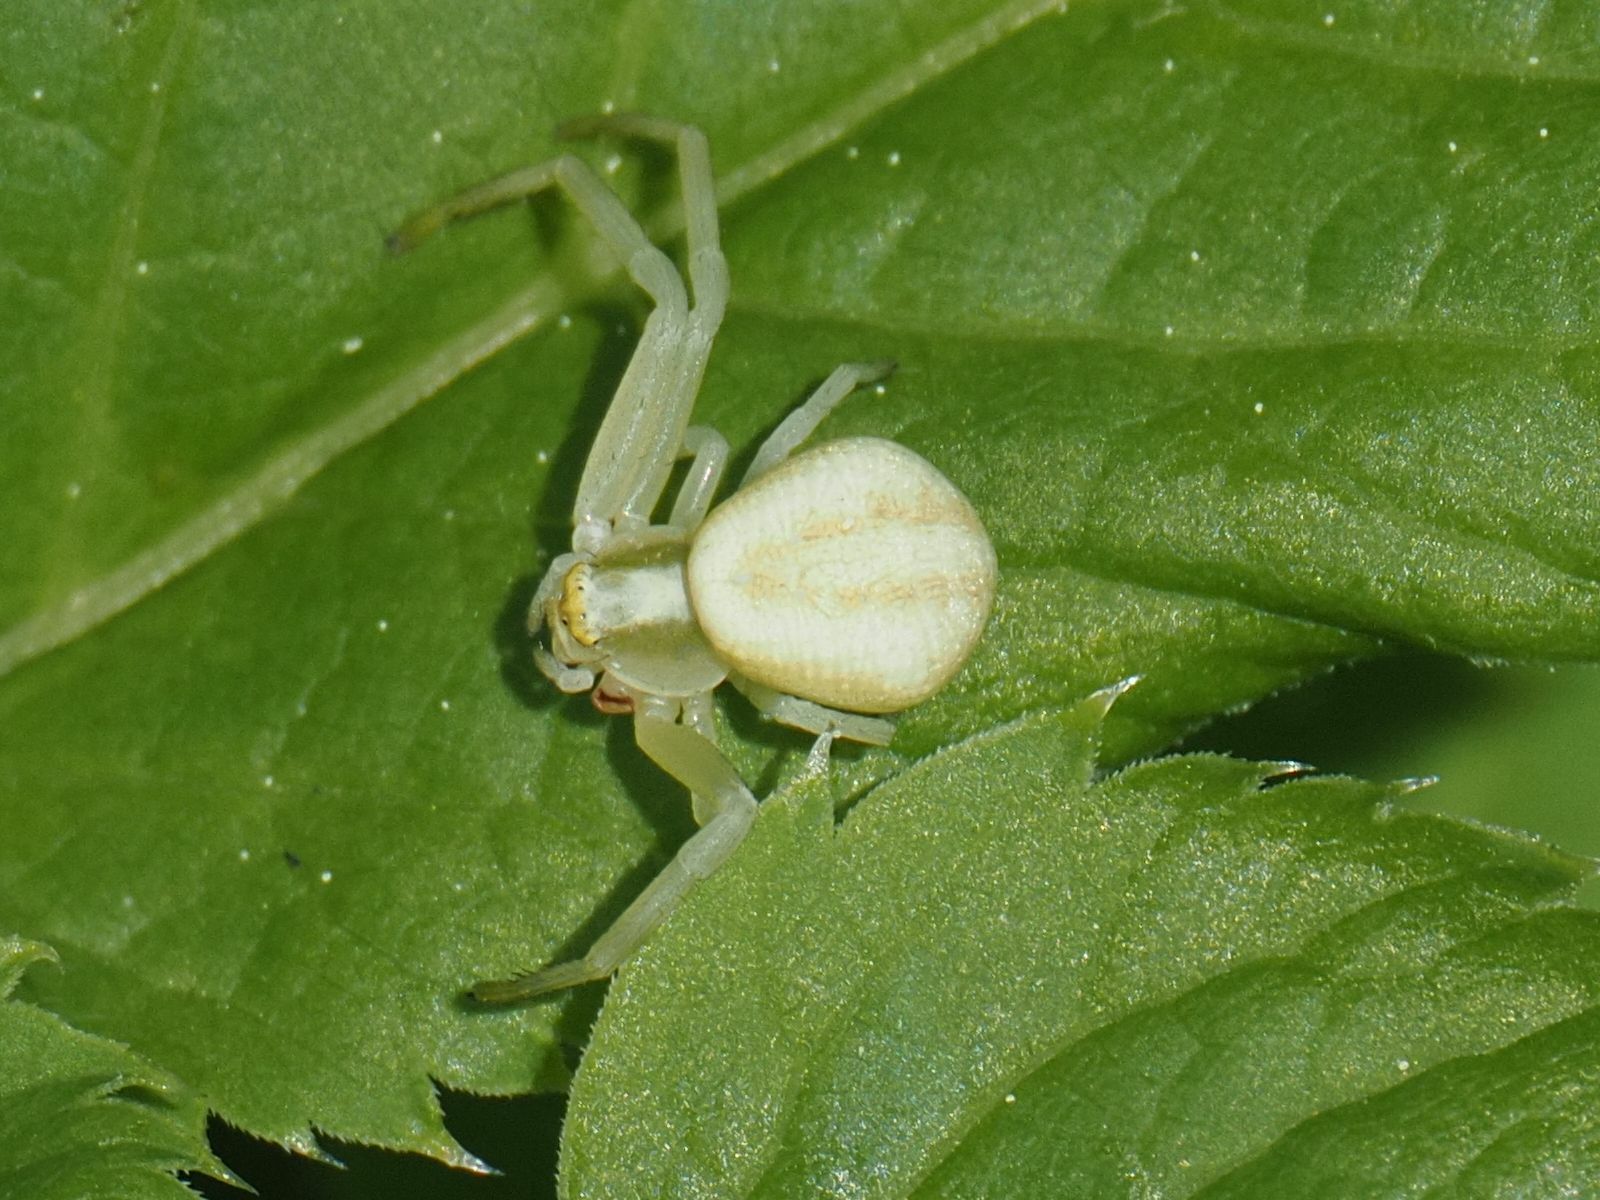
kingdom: Animalia
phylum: Arthropoda
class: Arachnida
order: Araneae
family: Thomisidae
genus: Misumena
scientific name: Misumena vatia
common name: Goldenrod crab spider
